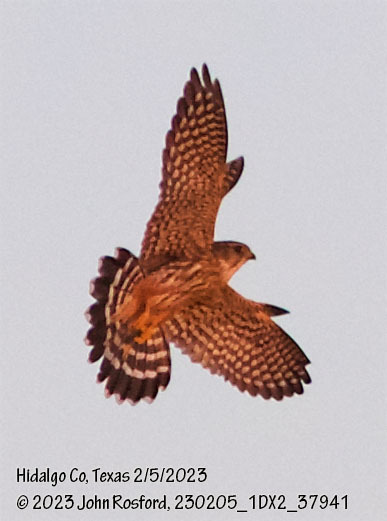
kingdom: Animalia
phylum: Chordata
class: Aves
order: Falconiformes
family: Falconidae
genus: Falco
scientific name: Falco columbarius
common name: Merlin
